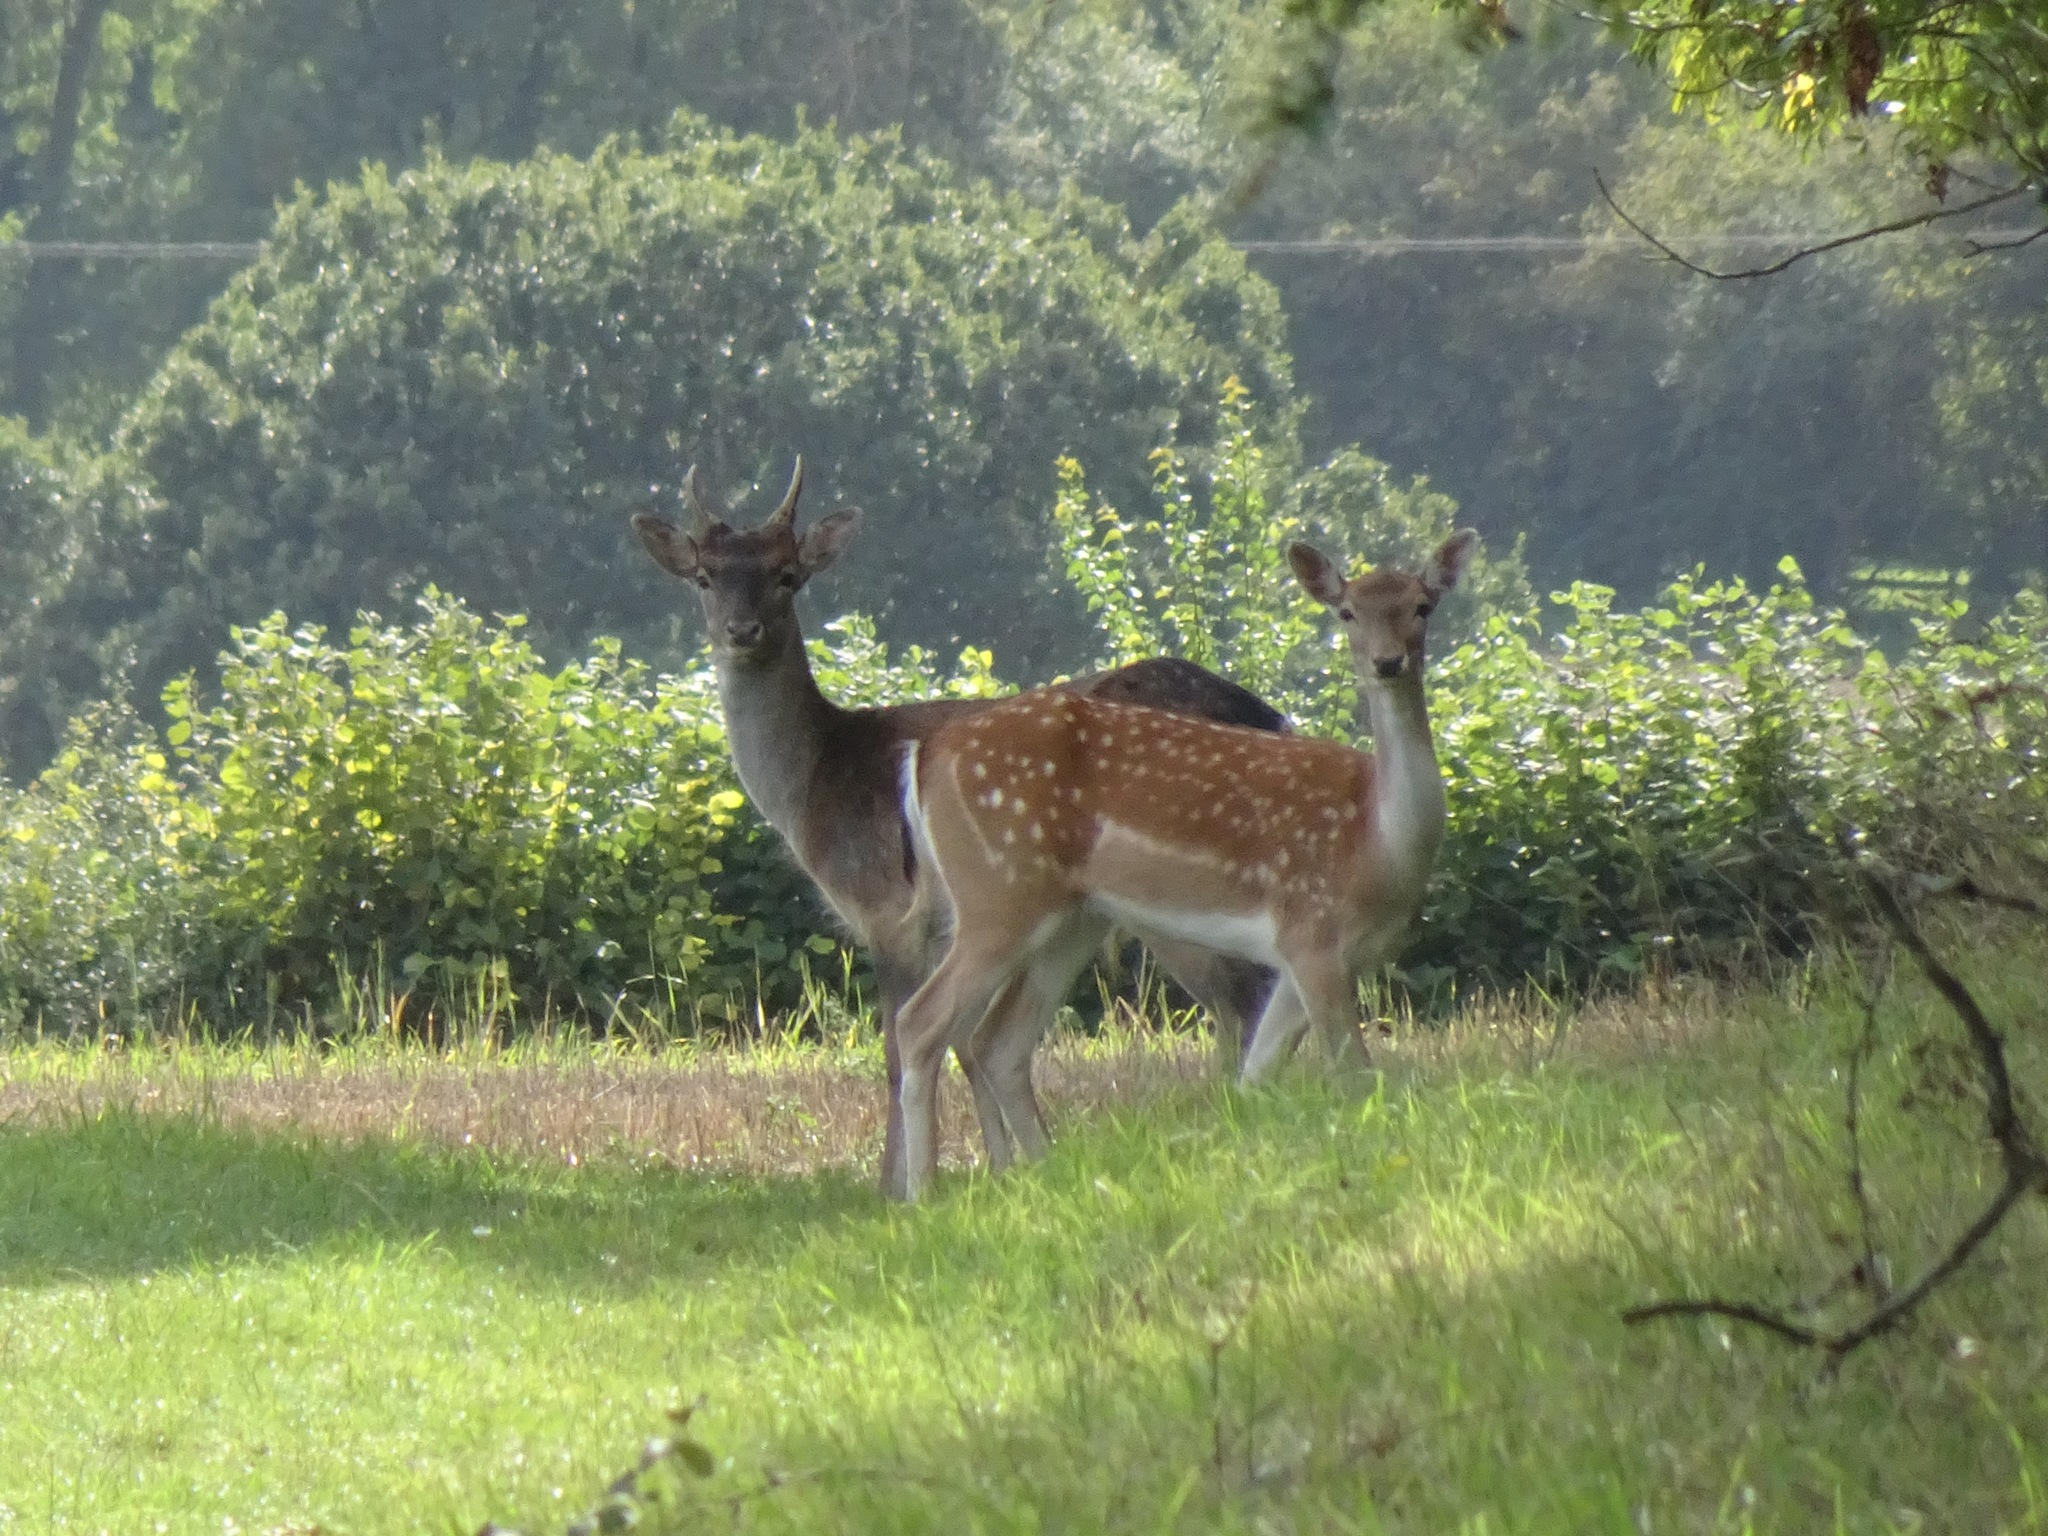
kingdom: Animalia
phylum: Chordata
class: Mammalia
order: Artiodactyla
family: Cervidae
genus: Dama
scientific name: Dama dama
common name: Fallow deer
